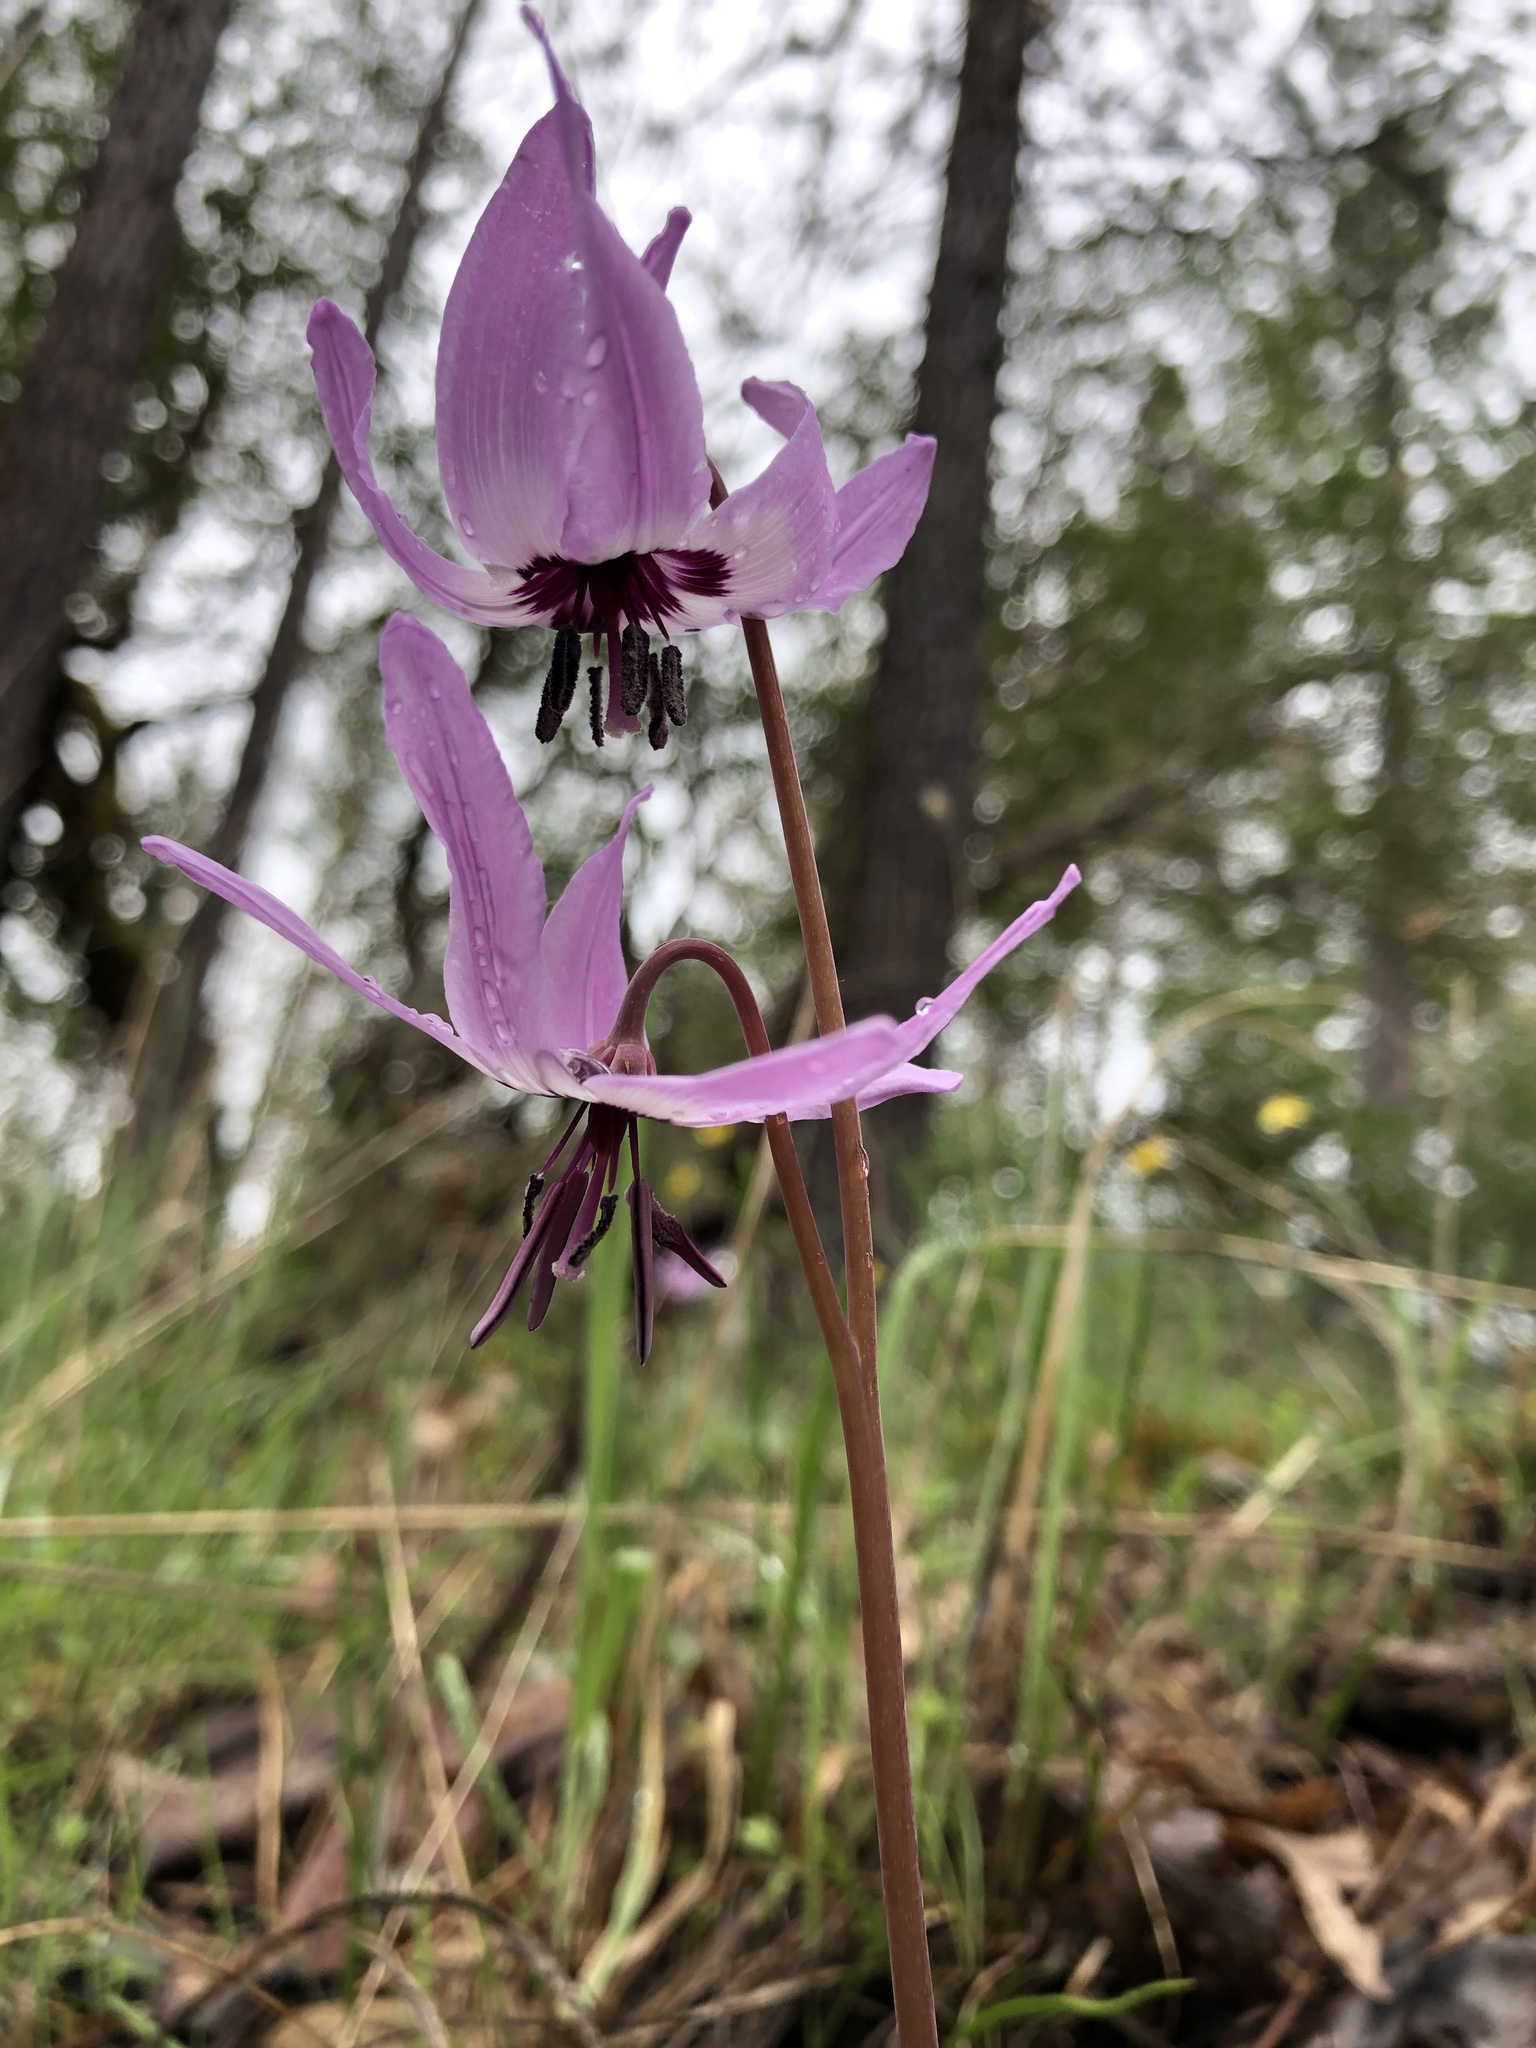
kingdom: Plantae
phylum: Tracheophyta
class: Liliopsida
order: Liliales
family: Liliaceae
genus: Erythronium
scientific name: Erythronium hendersonii
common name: Henderson's fawn-lily
